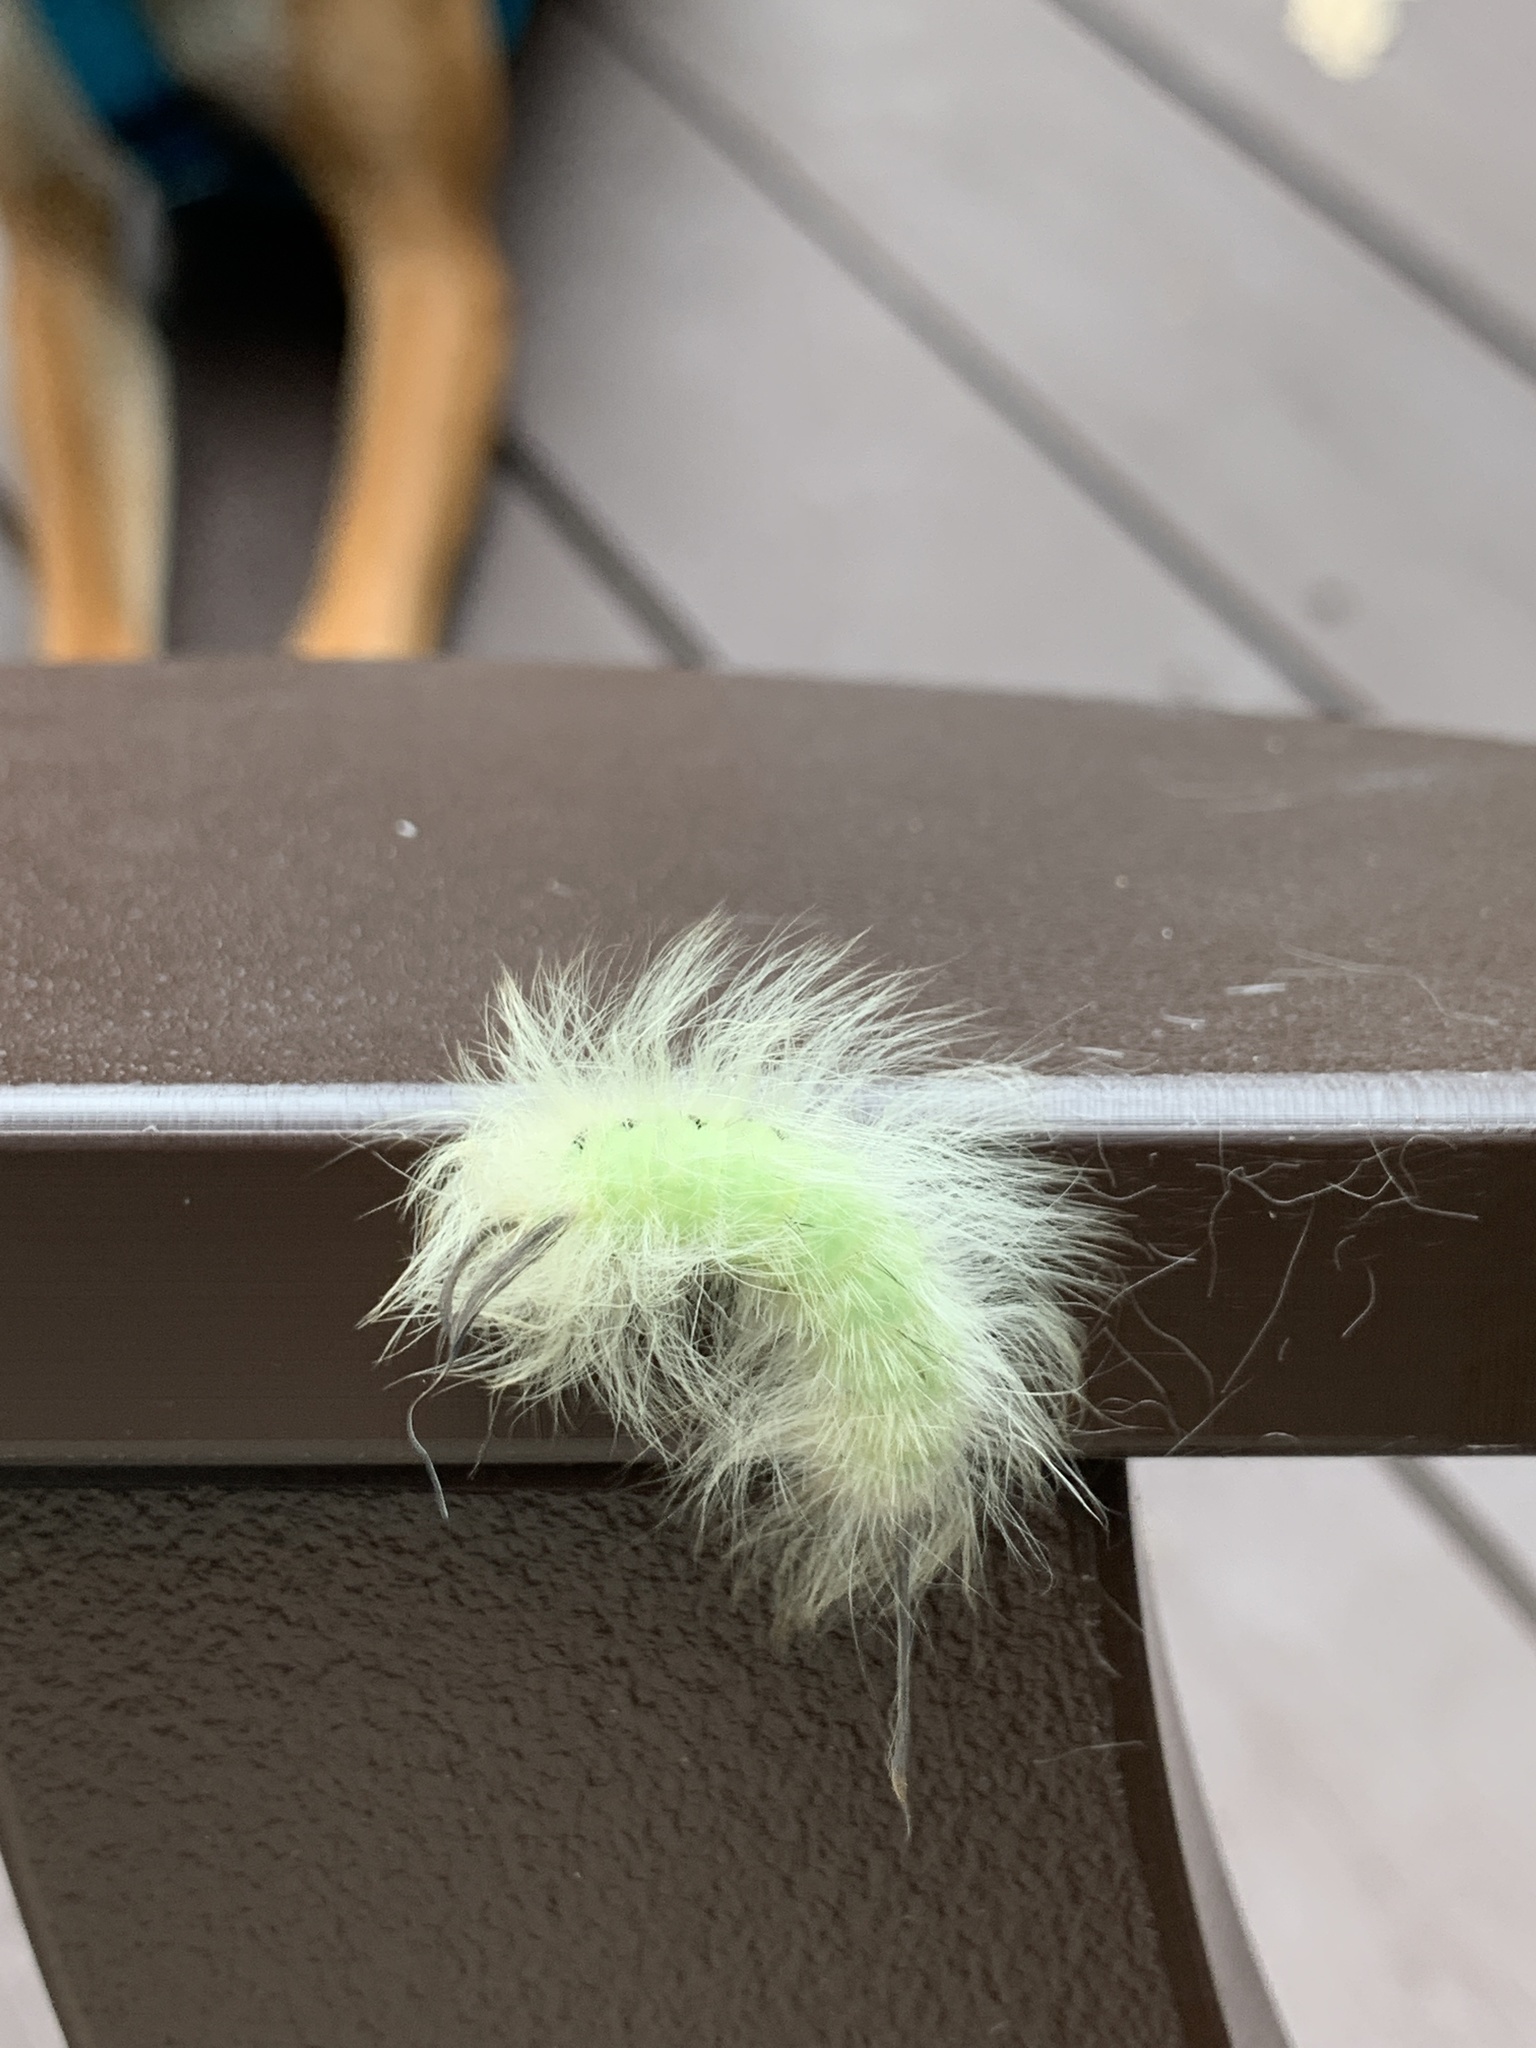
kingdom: Animalia
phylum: Arthropoda
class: Insecta
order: Lepidoptera
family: Apatelodidae
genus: Hygrochroa
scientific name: Hygrochroa Apatelodes torrefacta
